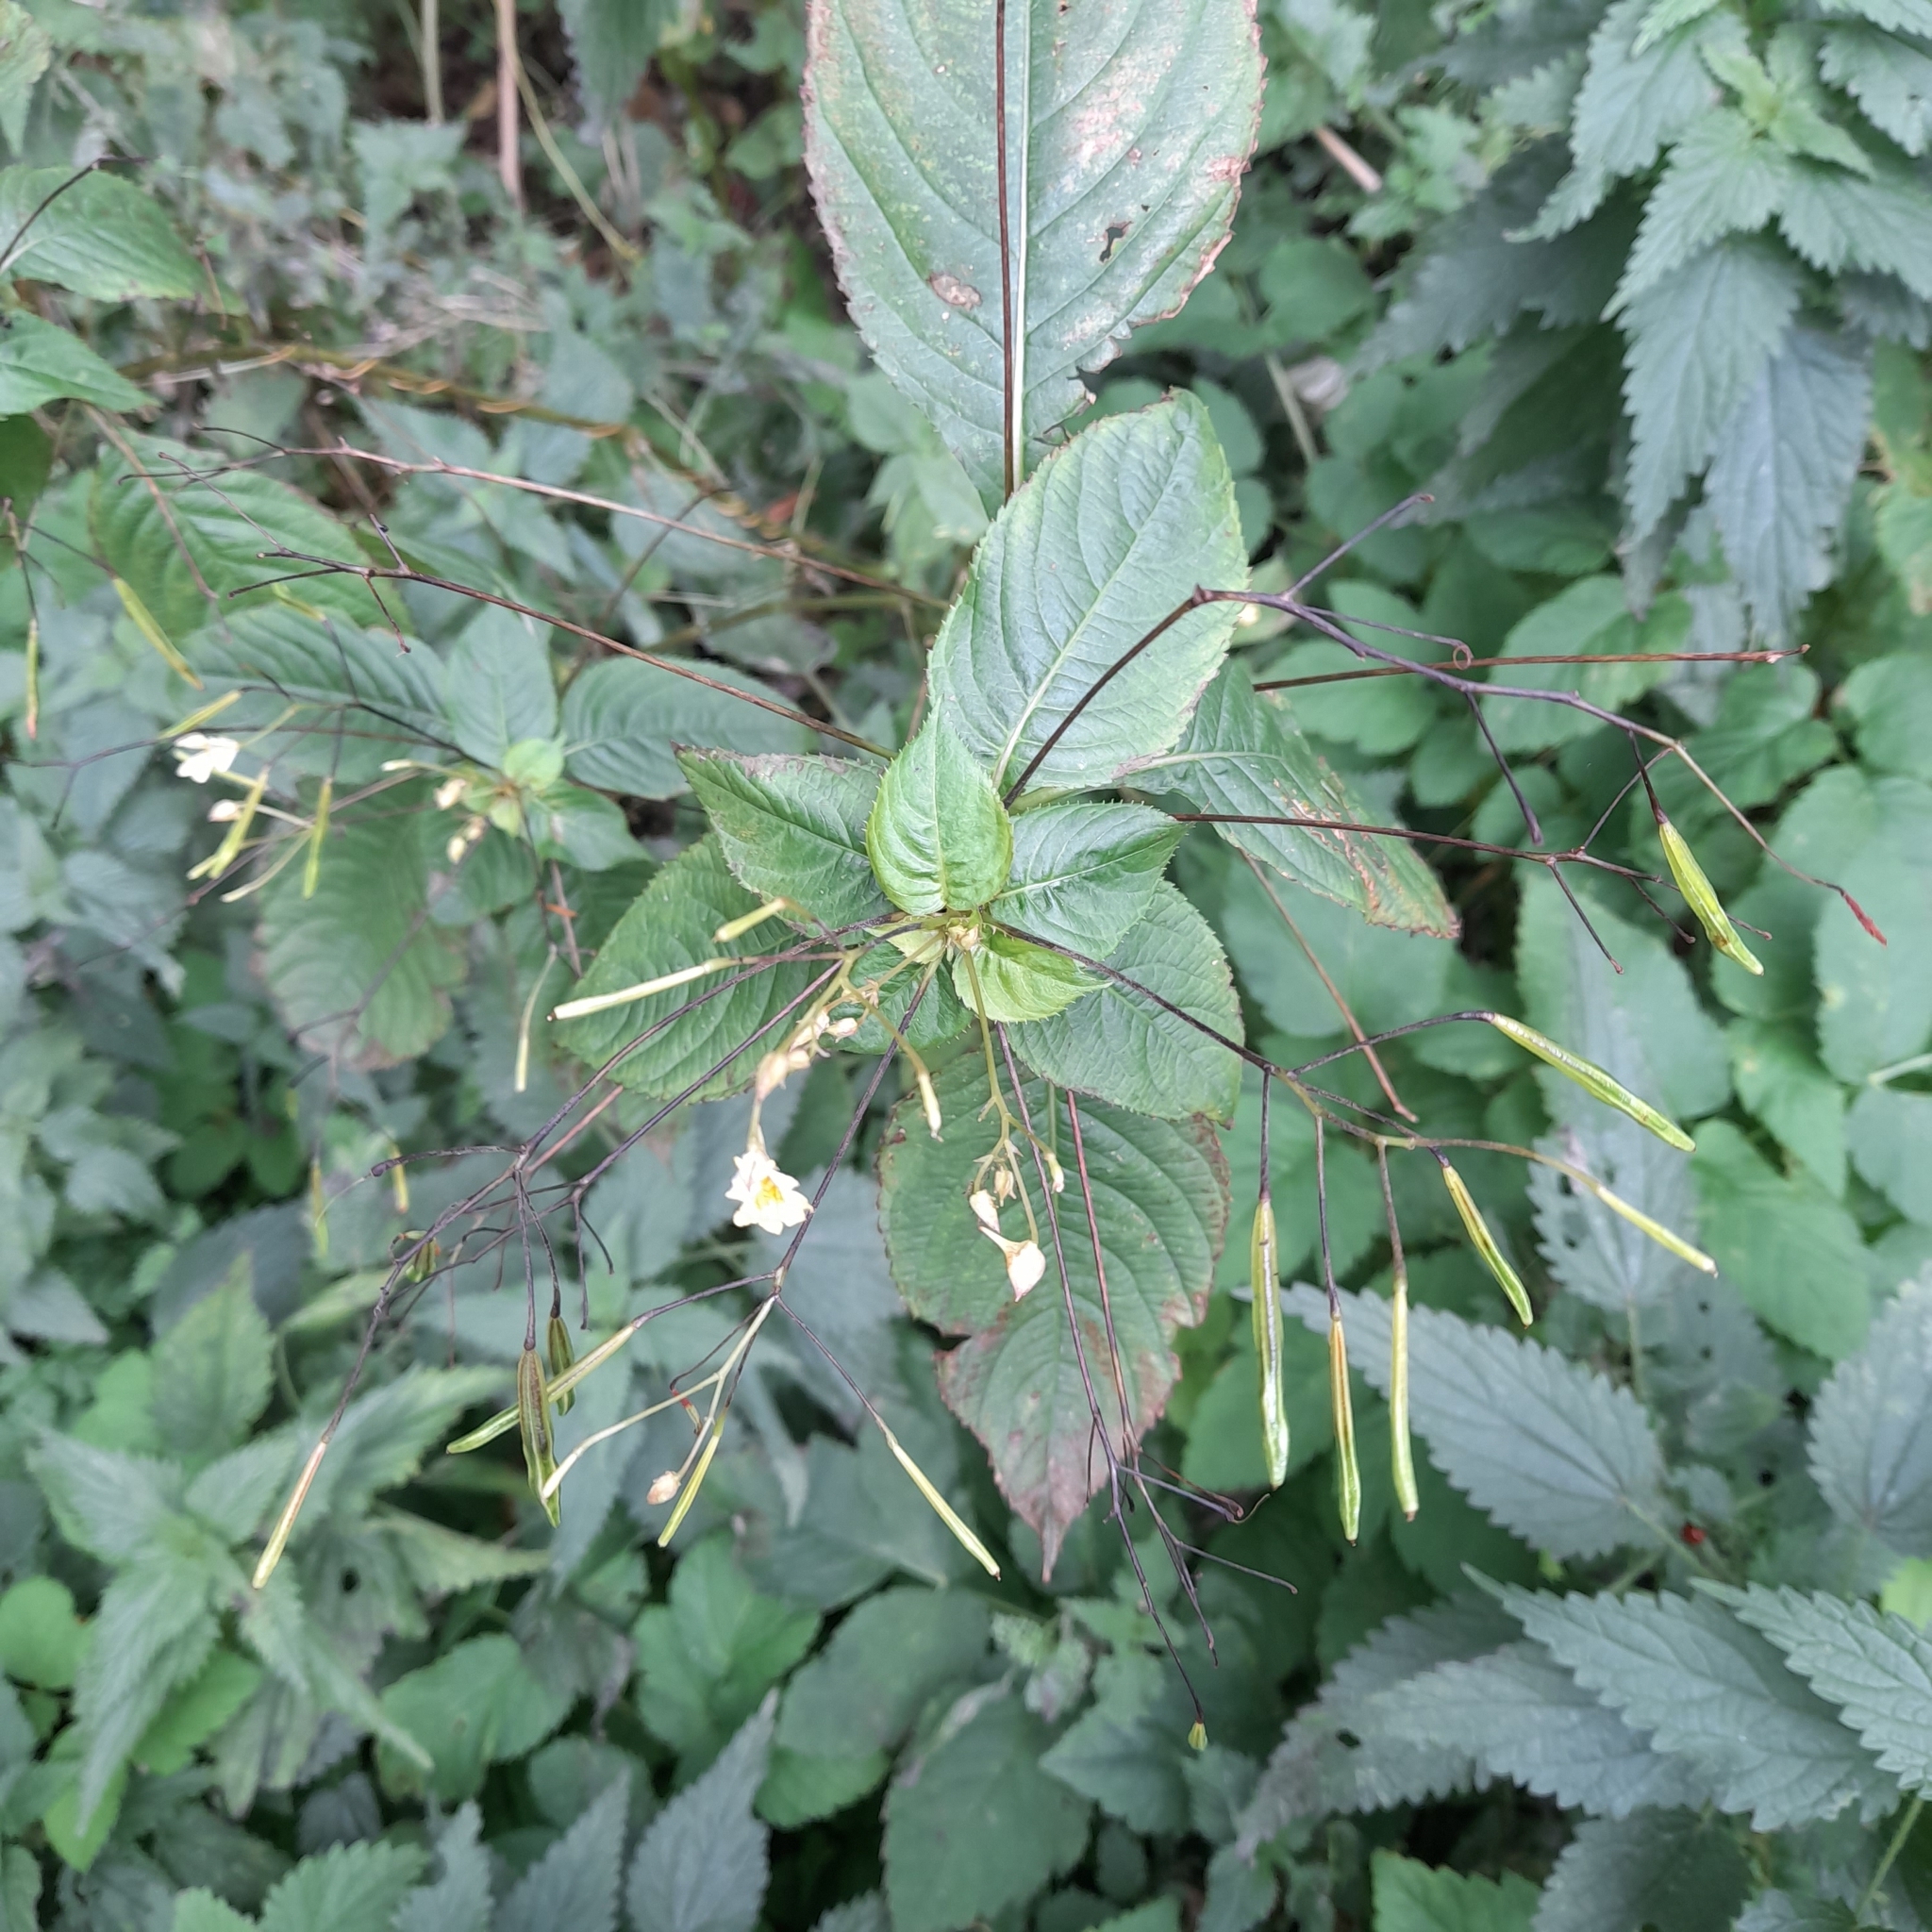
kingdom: Plantae
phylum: Tracheophyta
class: Magnoliopsida
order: Ericales
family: Balsaminaceae
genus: Impatiens
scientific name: Impatiens parviflora
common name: Small balsam
